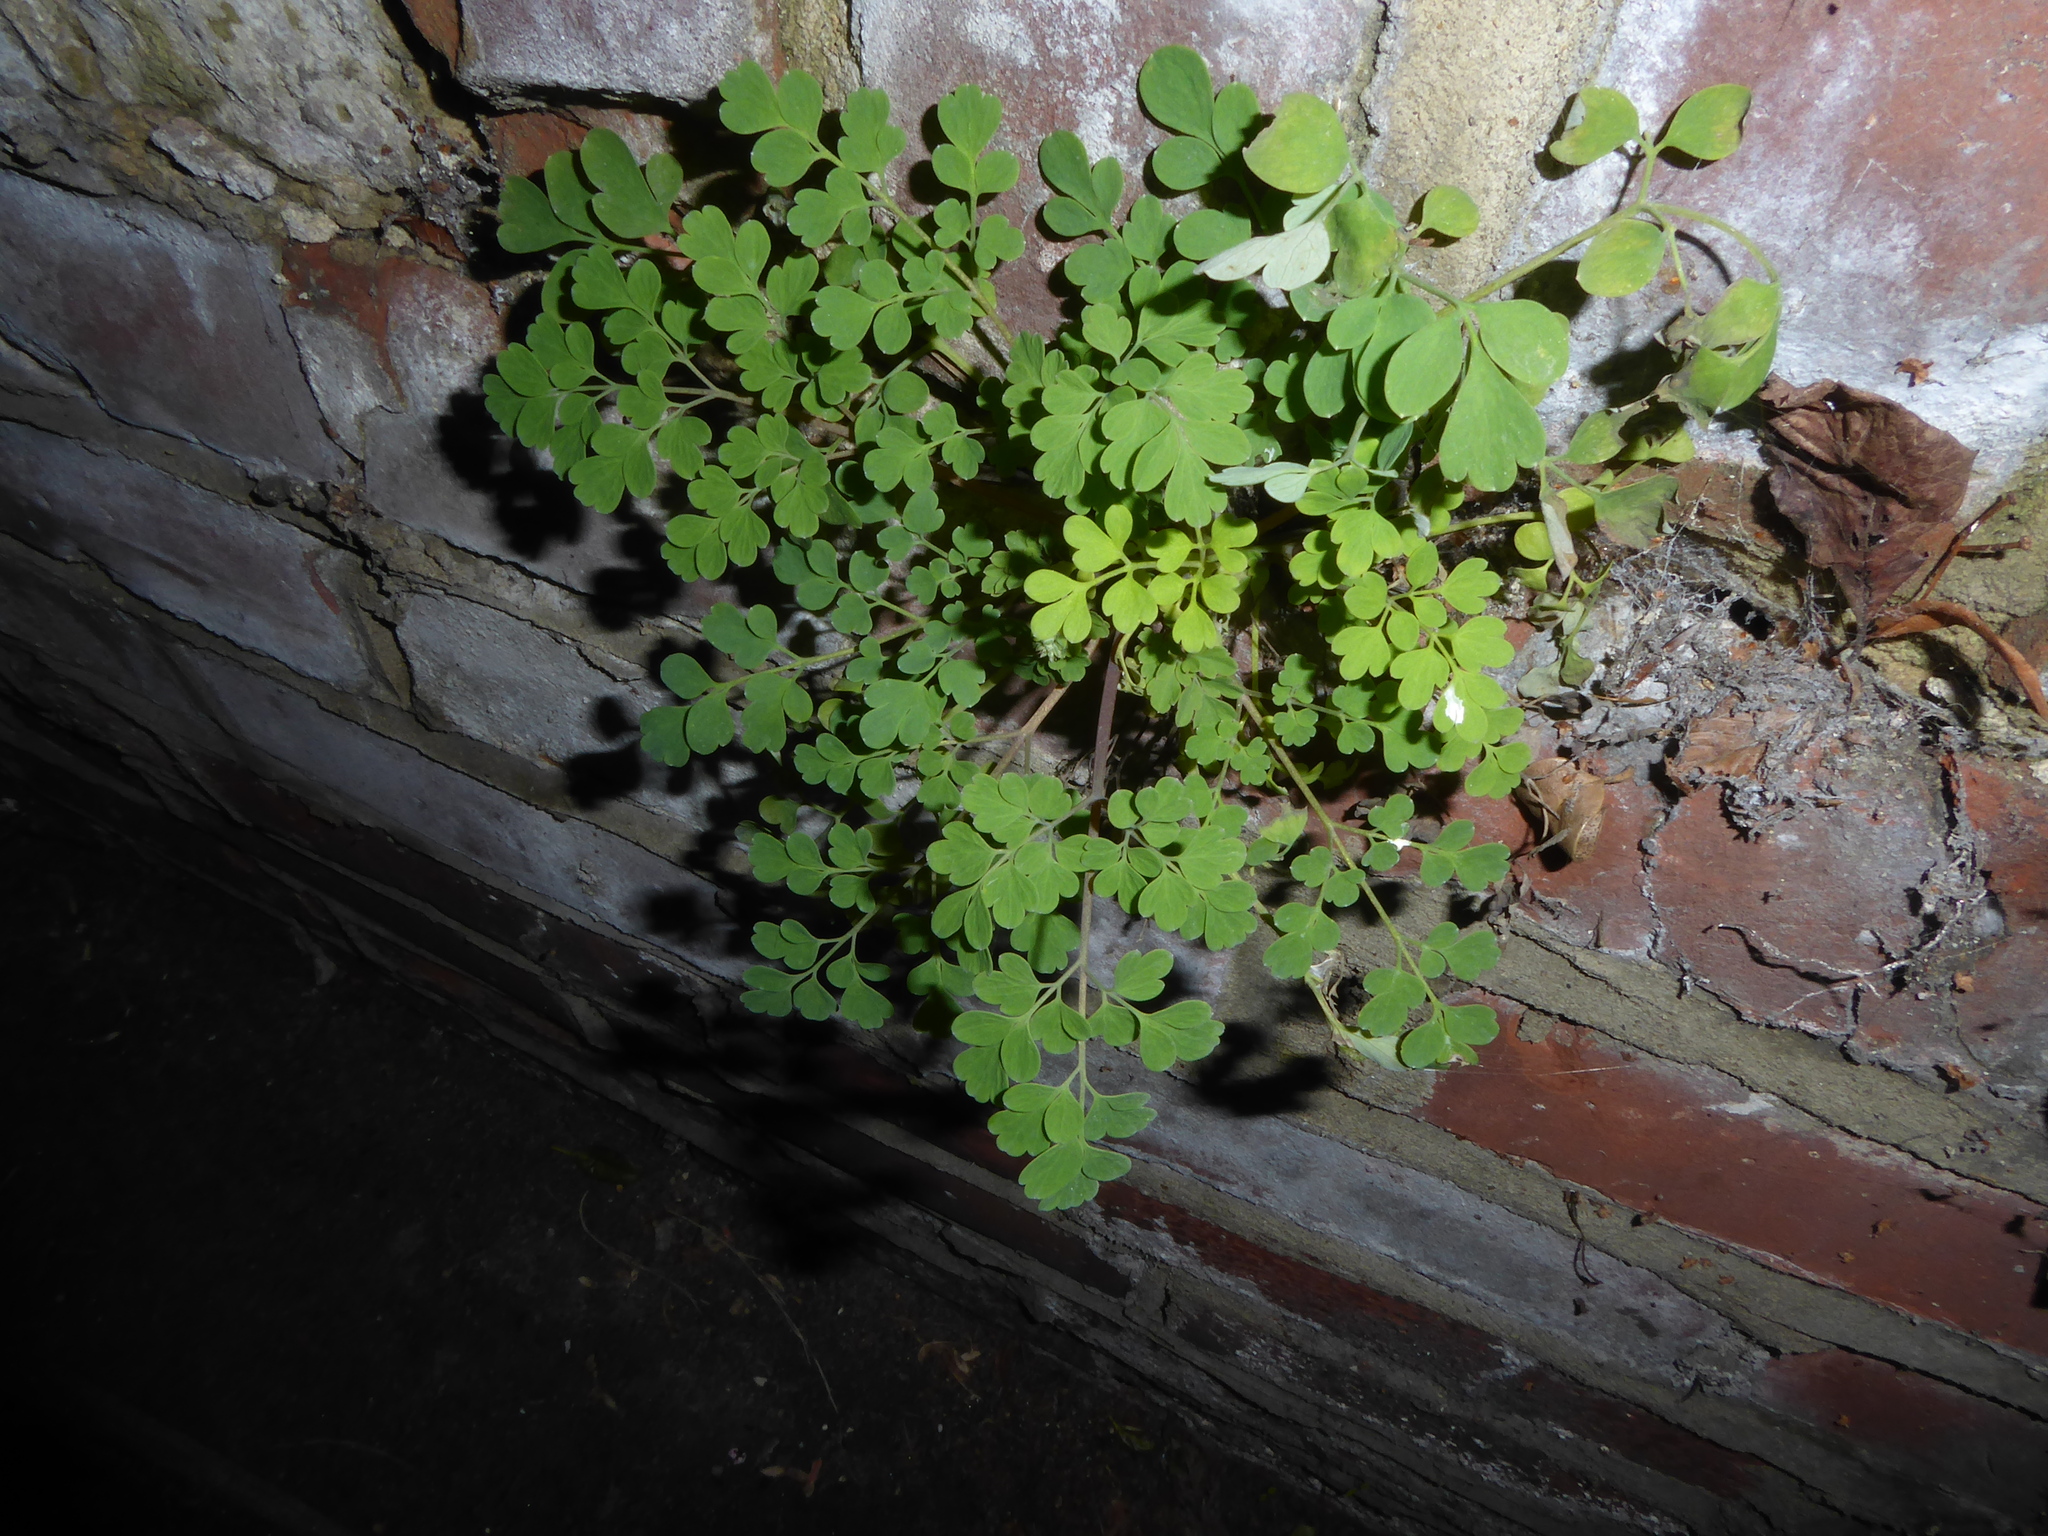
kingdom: Plantae
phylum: Tracheophyta
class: Magnoliopsida
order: Ranunculales
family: Papaveraceae
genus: Pseudofumaria
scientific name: Pseudofumaria lutea
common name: Yellow corydalis
